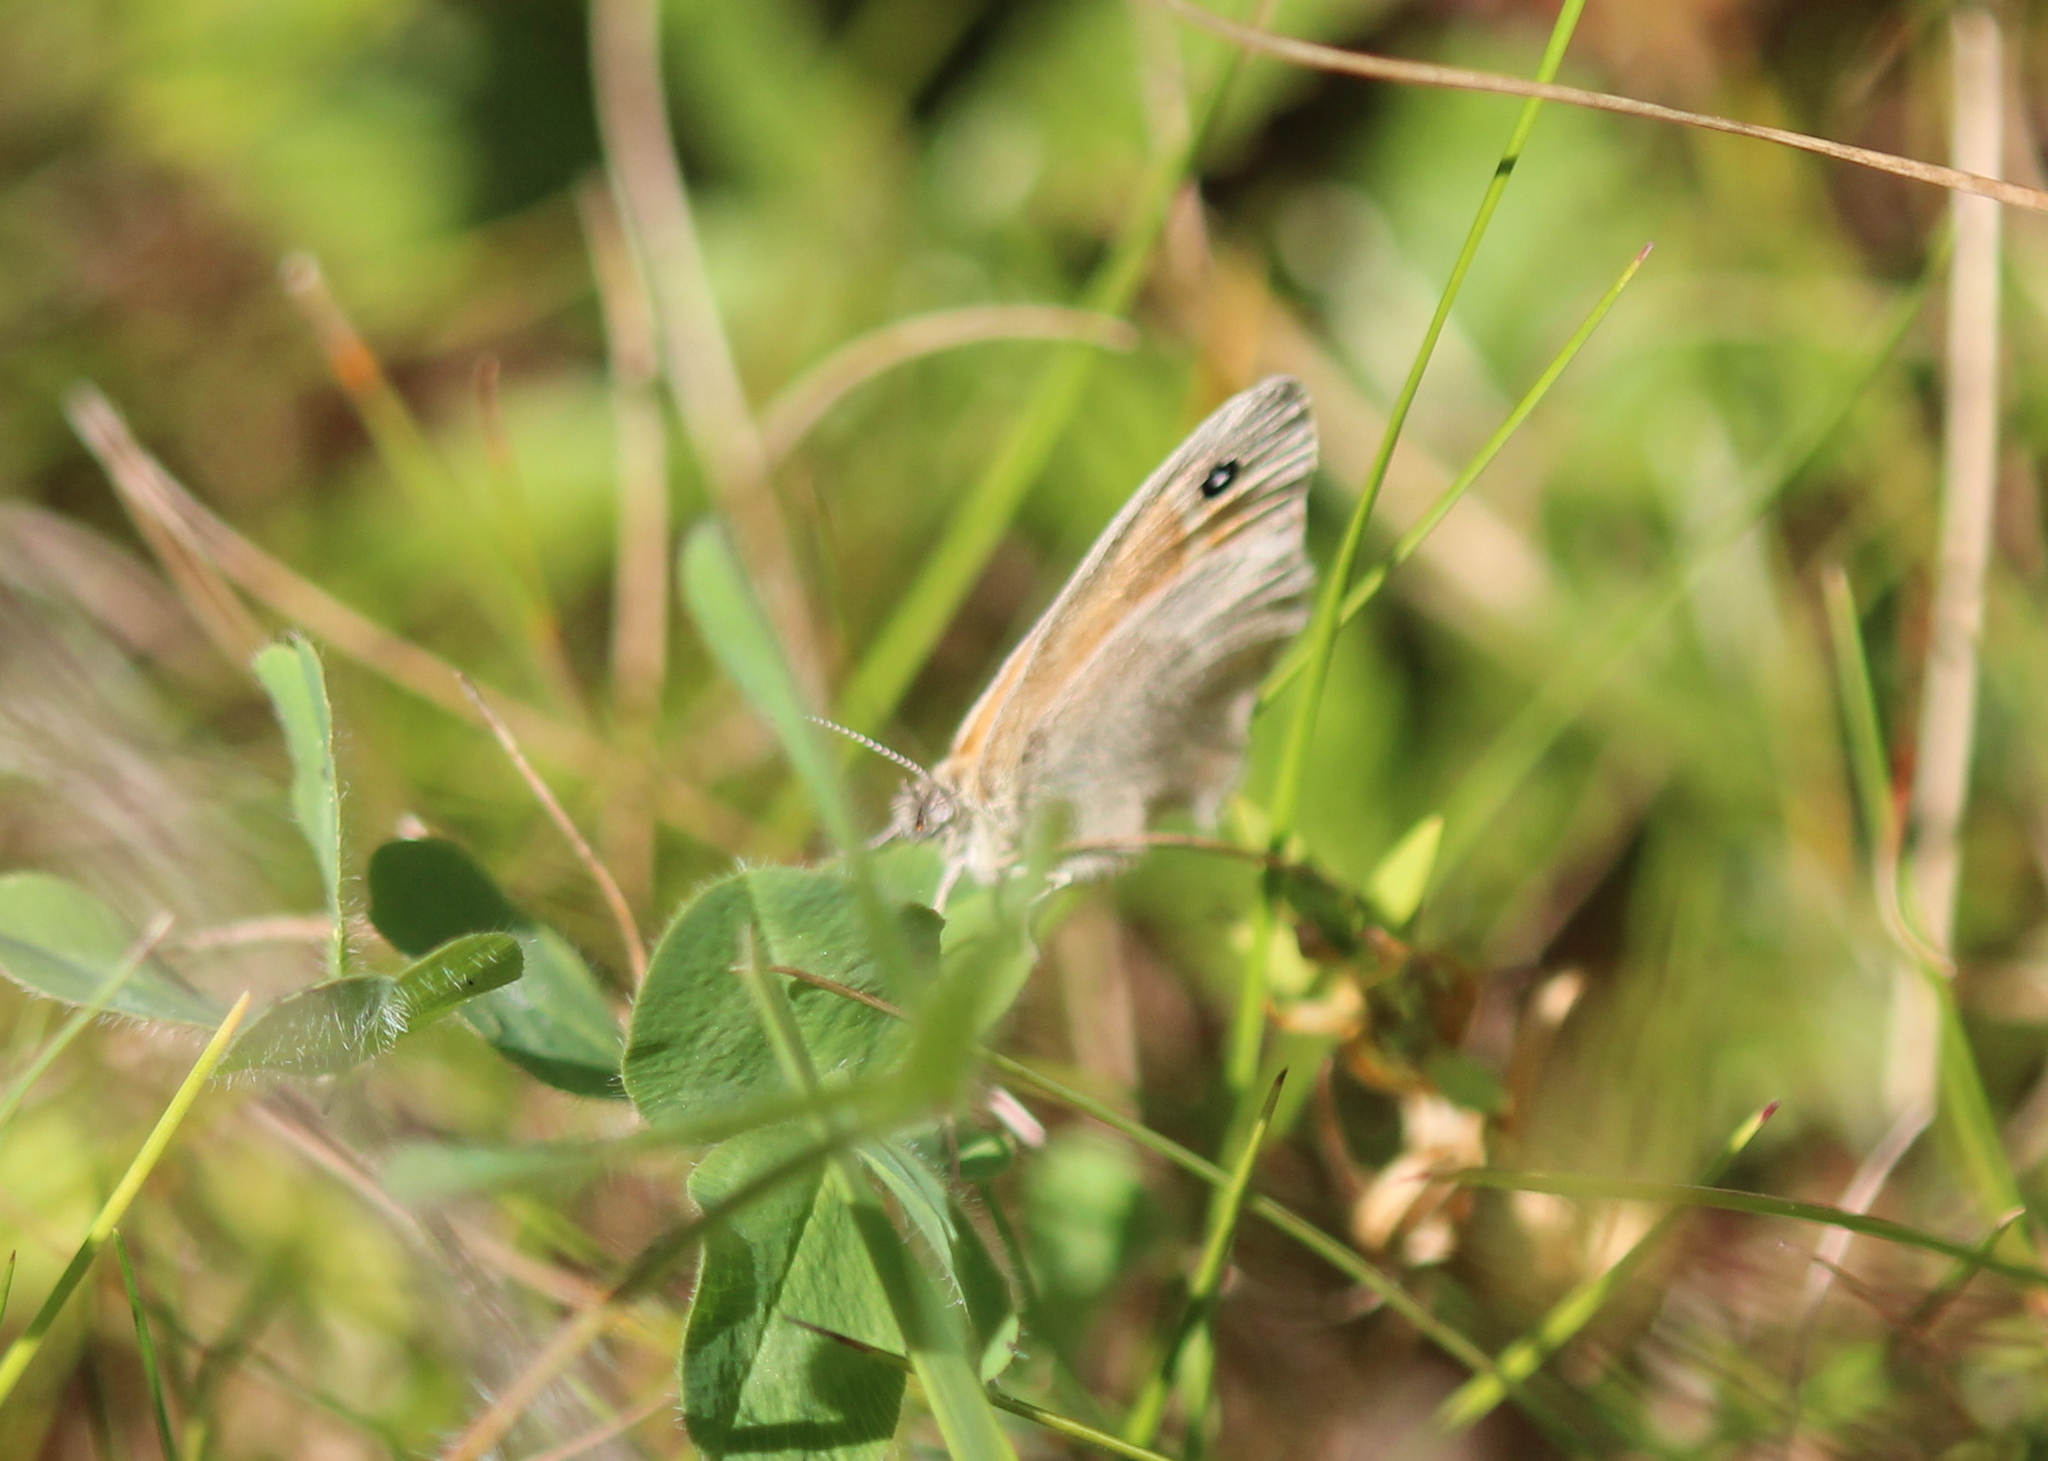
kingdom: Animalia
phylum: Arthropoda
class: Insecta
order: Lepidoptera
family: Nymphalidae
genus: Coenonympha
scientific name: Coenonympha california
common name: Common ringlet
